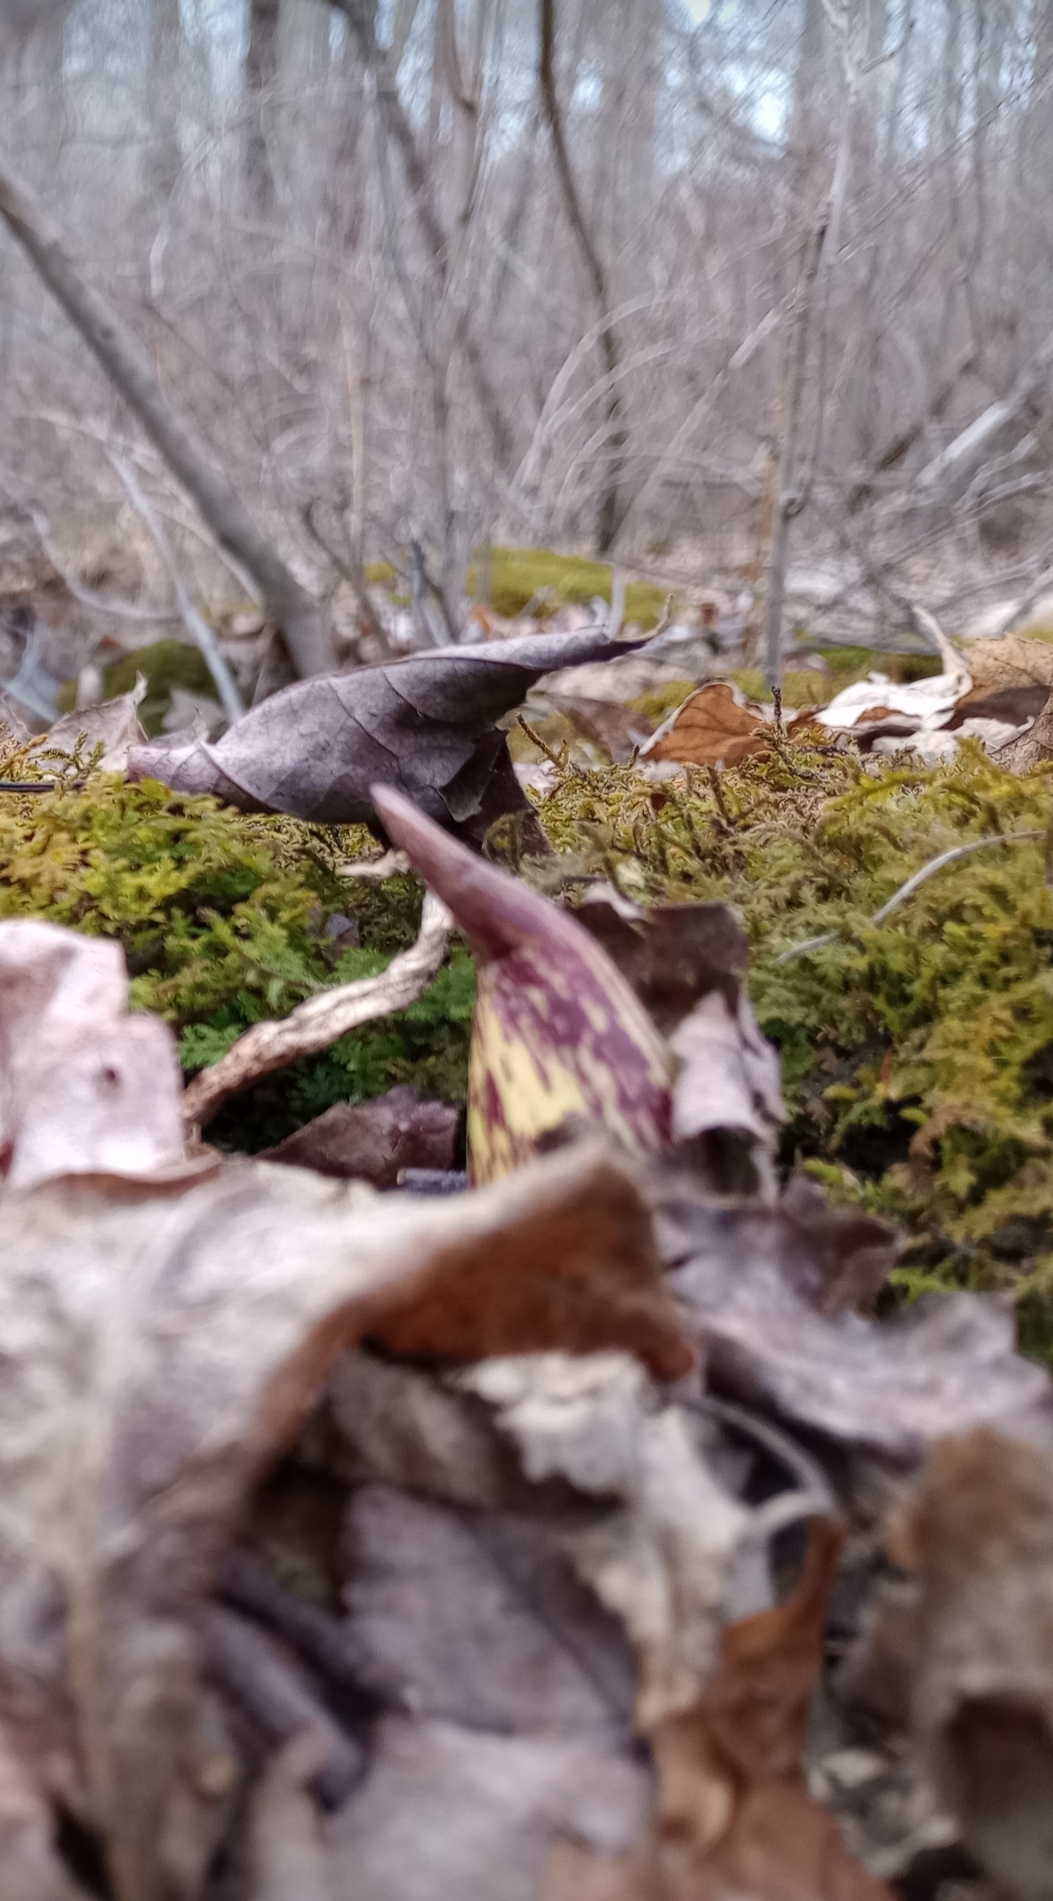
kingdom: Plantae
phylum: Tracheophyta
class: Liliopsida
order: Alismatales
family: Araceae
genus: Symplocarpus
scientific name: Symplocarpus foetidus
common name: Eastern skunk cabbage
